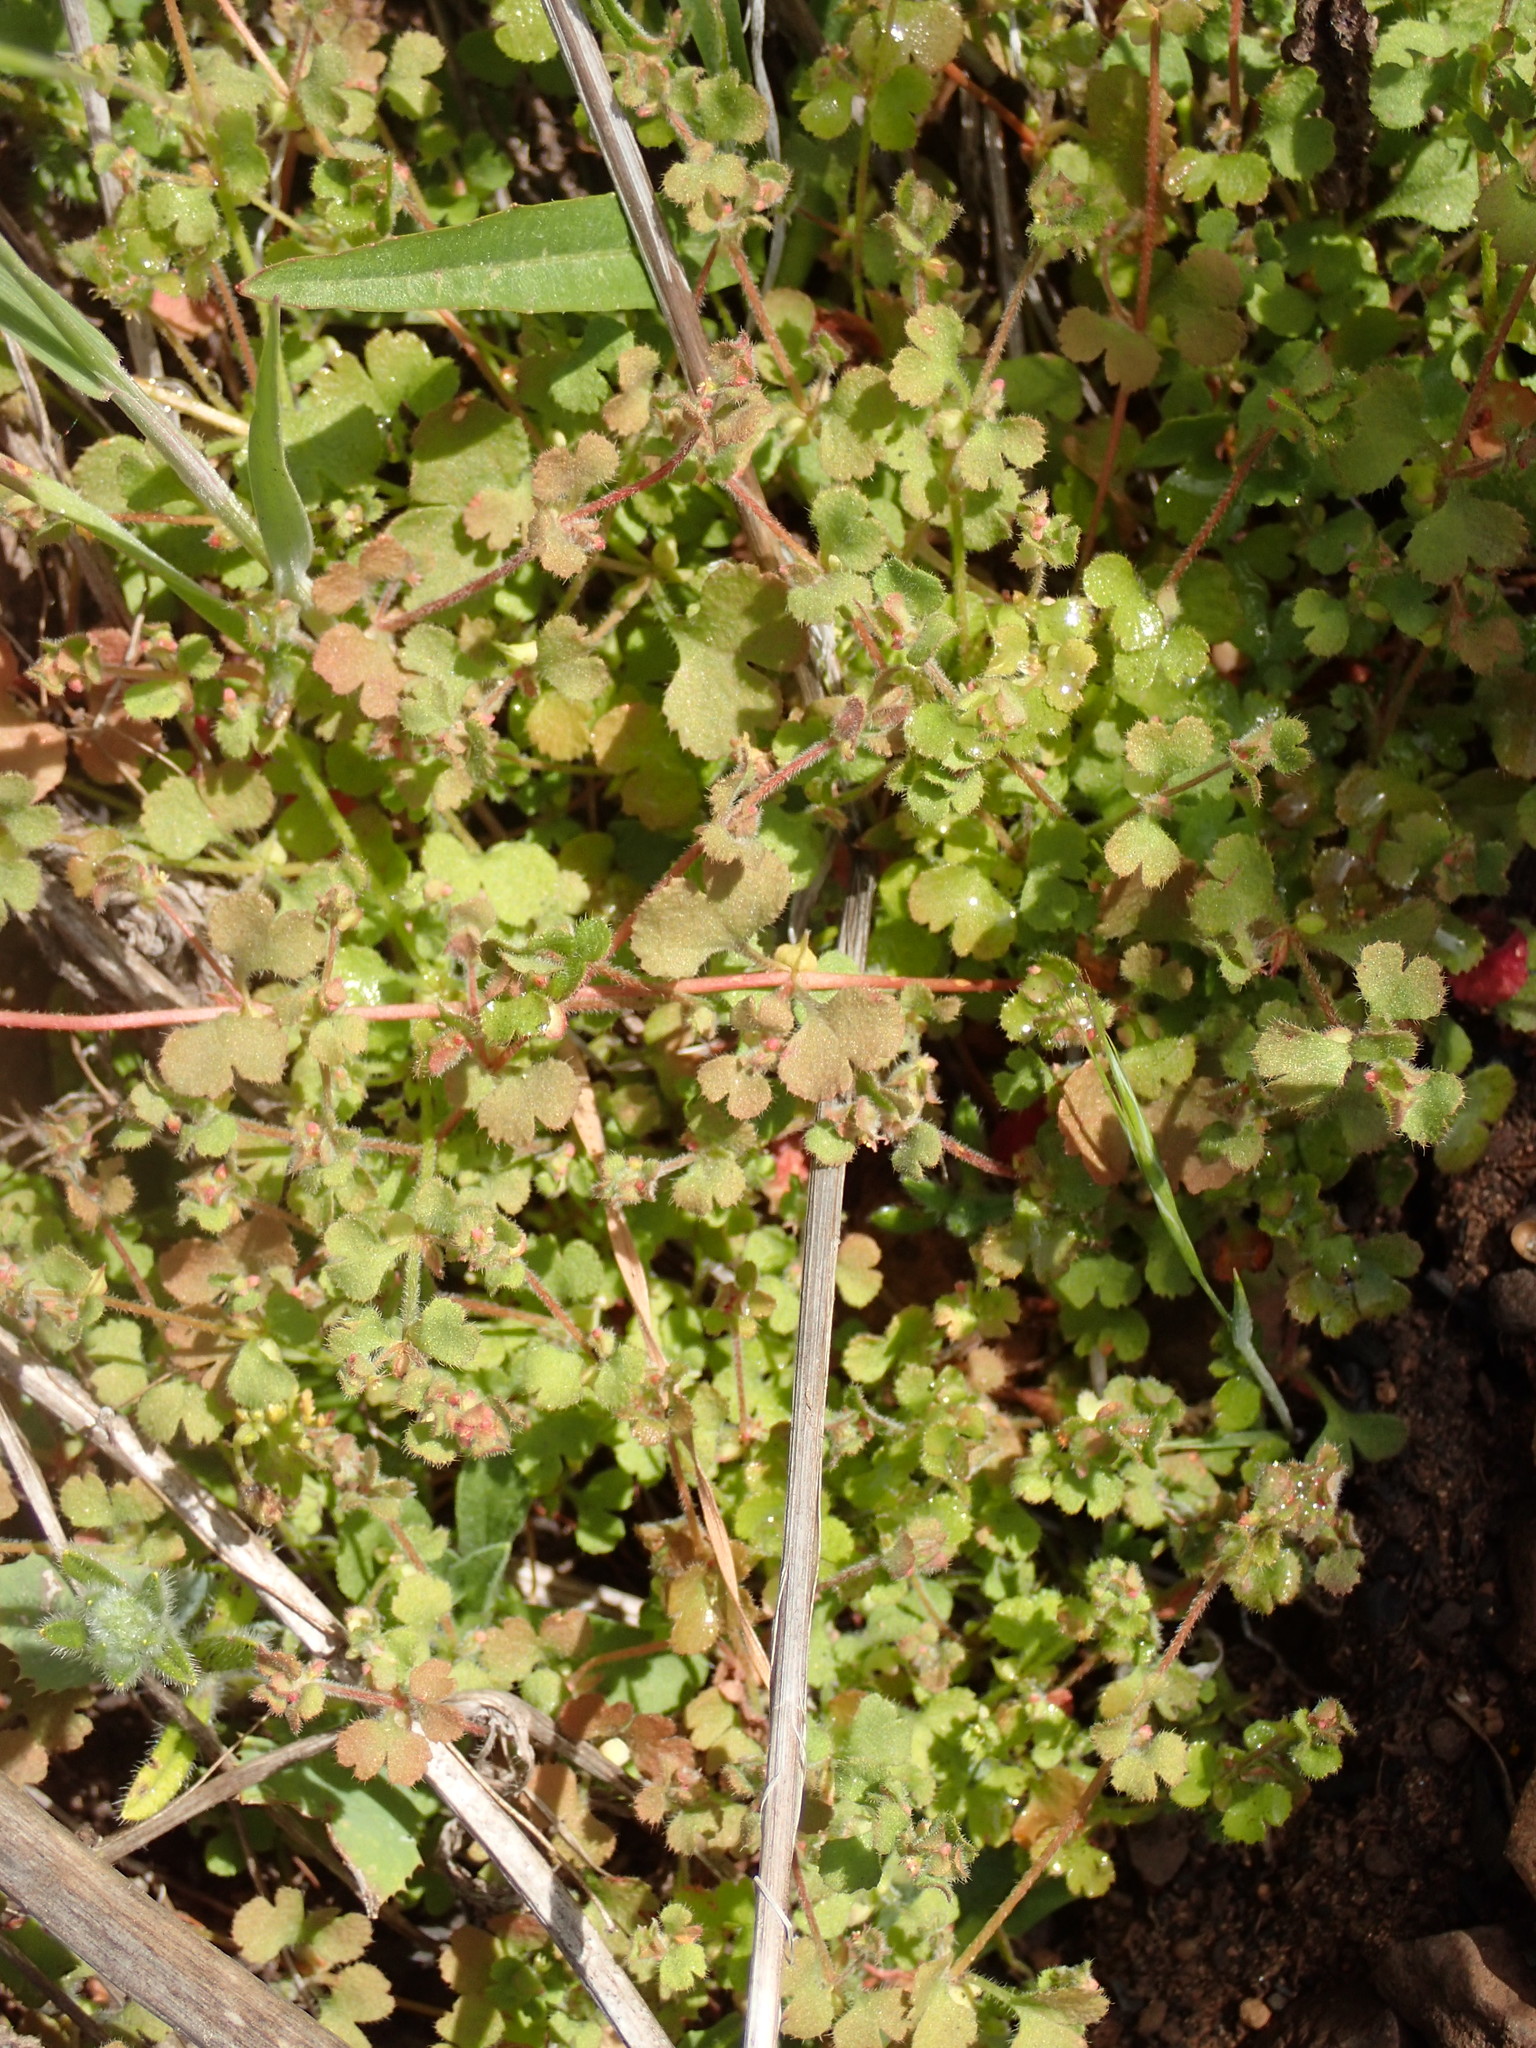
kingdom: Plantae
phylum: Tracheophyta
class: Magnoliopsida
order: Caryophyllales
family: Polygonaceae
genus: Pterostegia
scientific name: Pterostegia drymarioides
